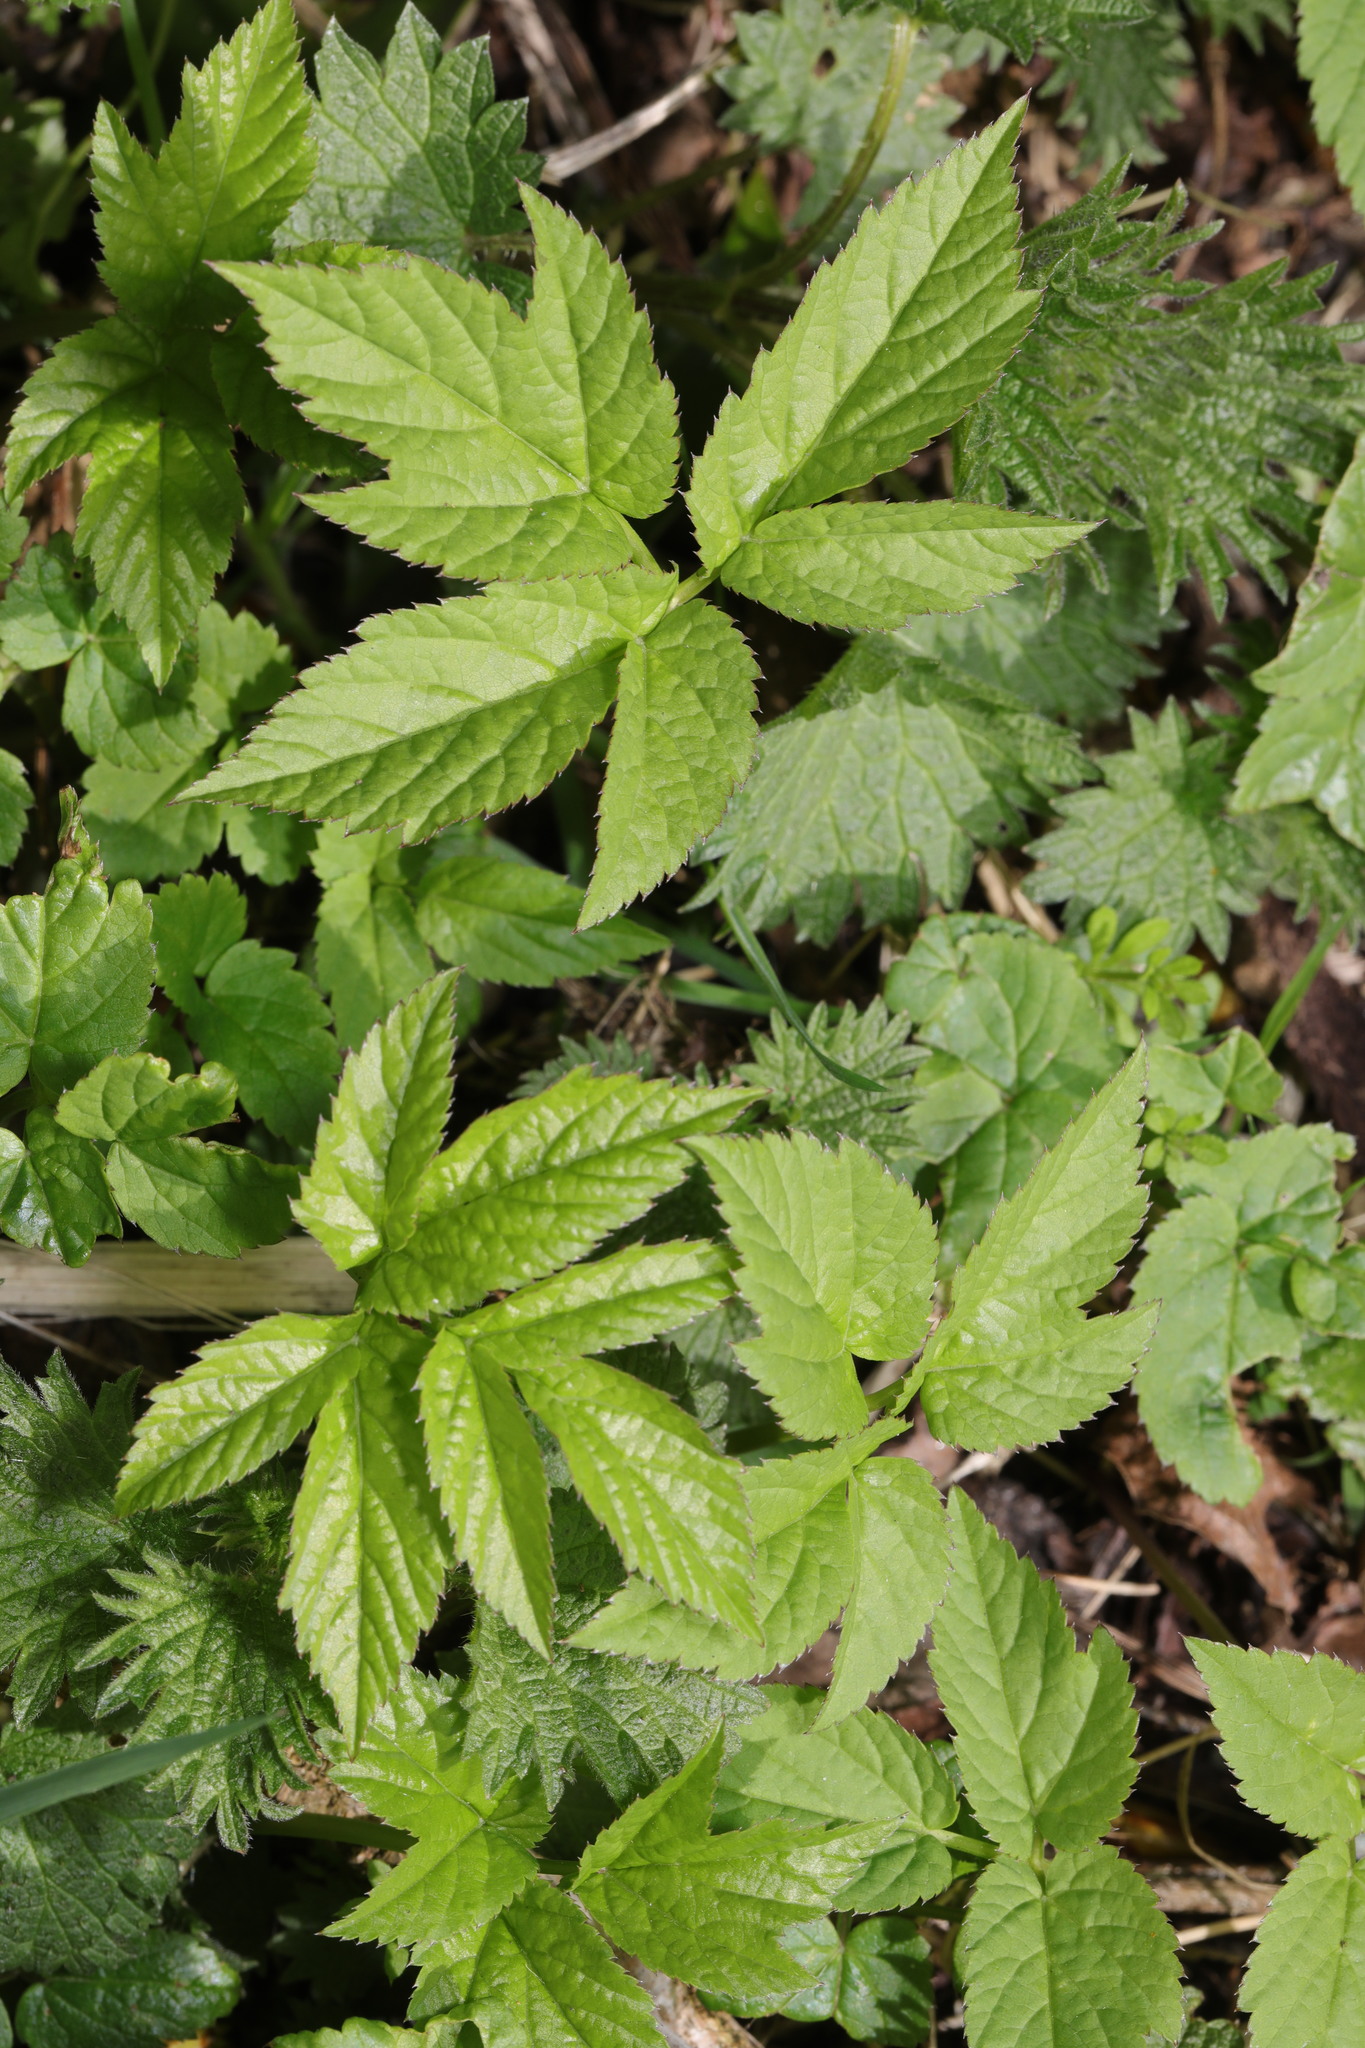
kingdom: Plantae
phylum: Tracheophyta
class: Magnoliopsida
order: Apiales
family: Apiaceae
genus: Aegopodium
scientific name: Aegopodium podagraria
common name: Ground-elder
